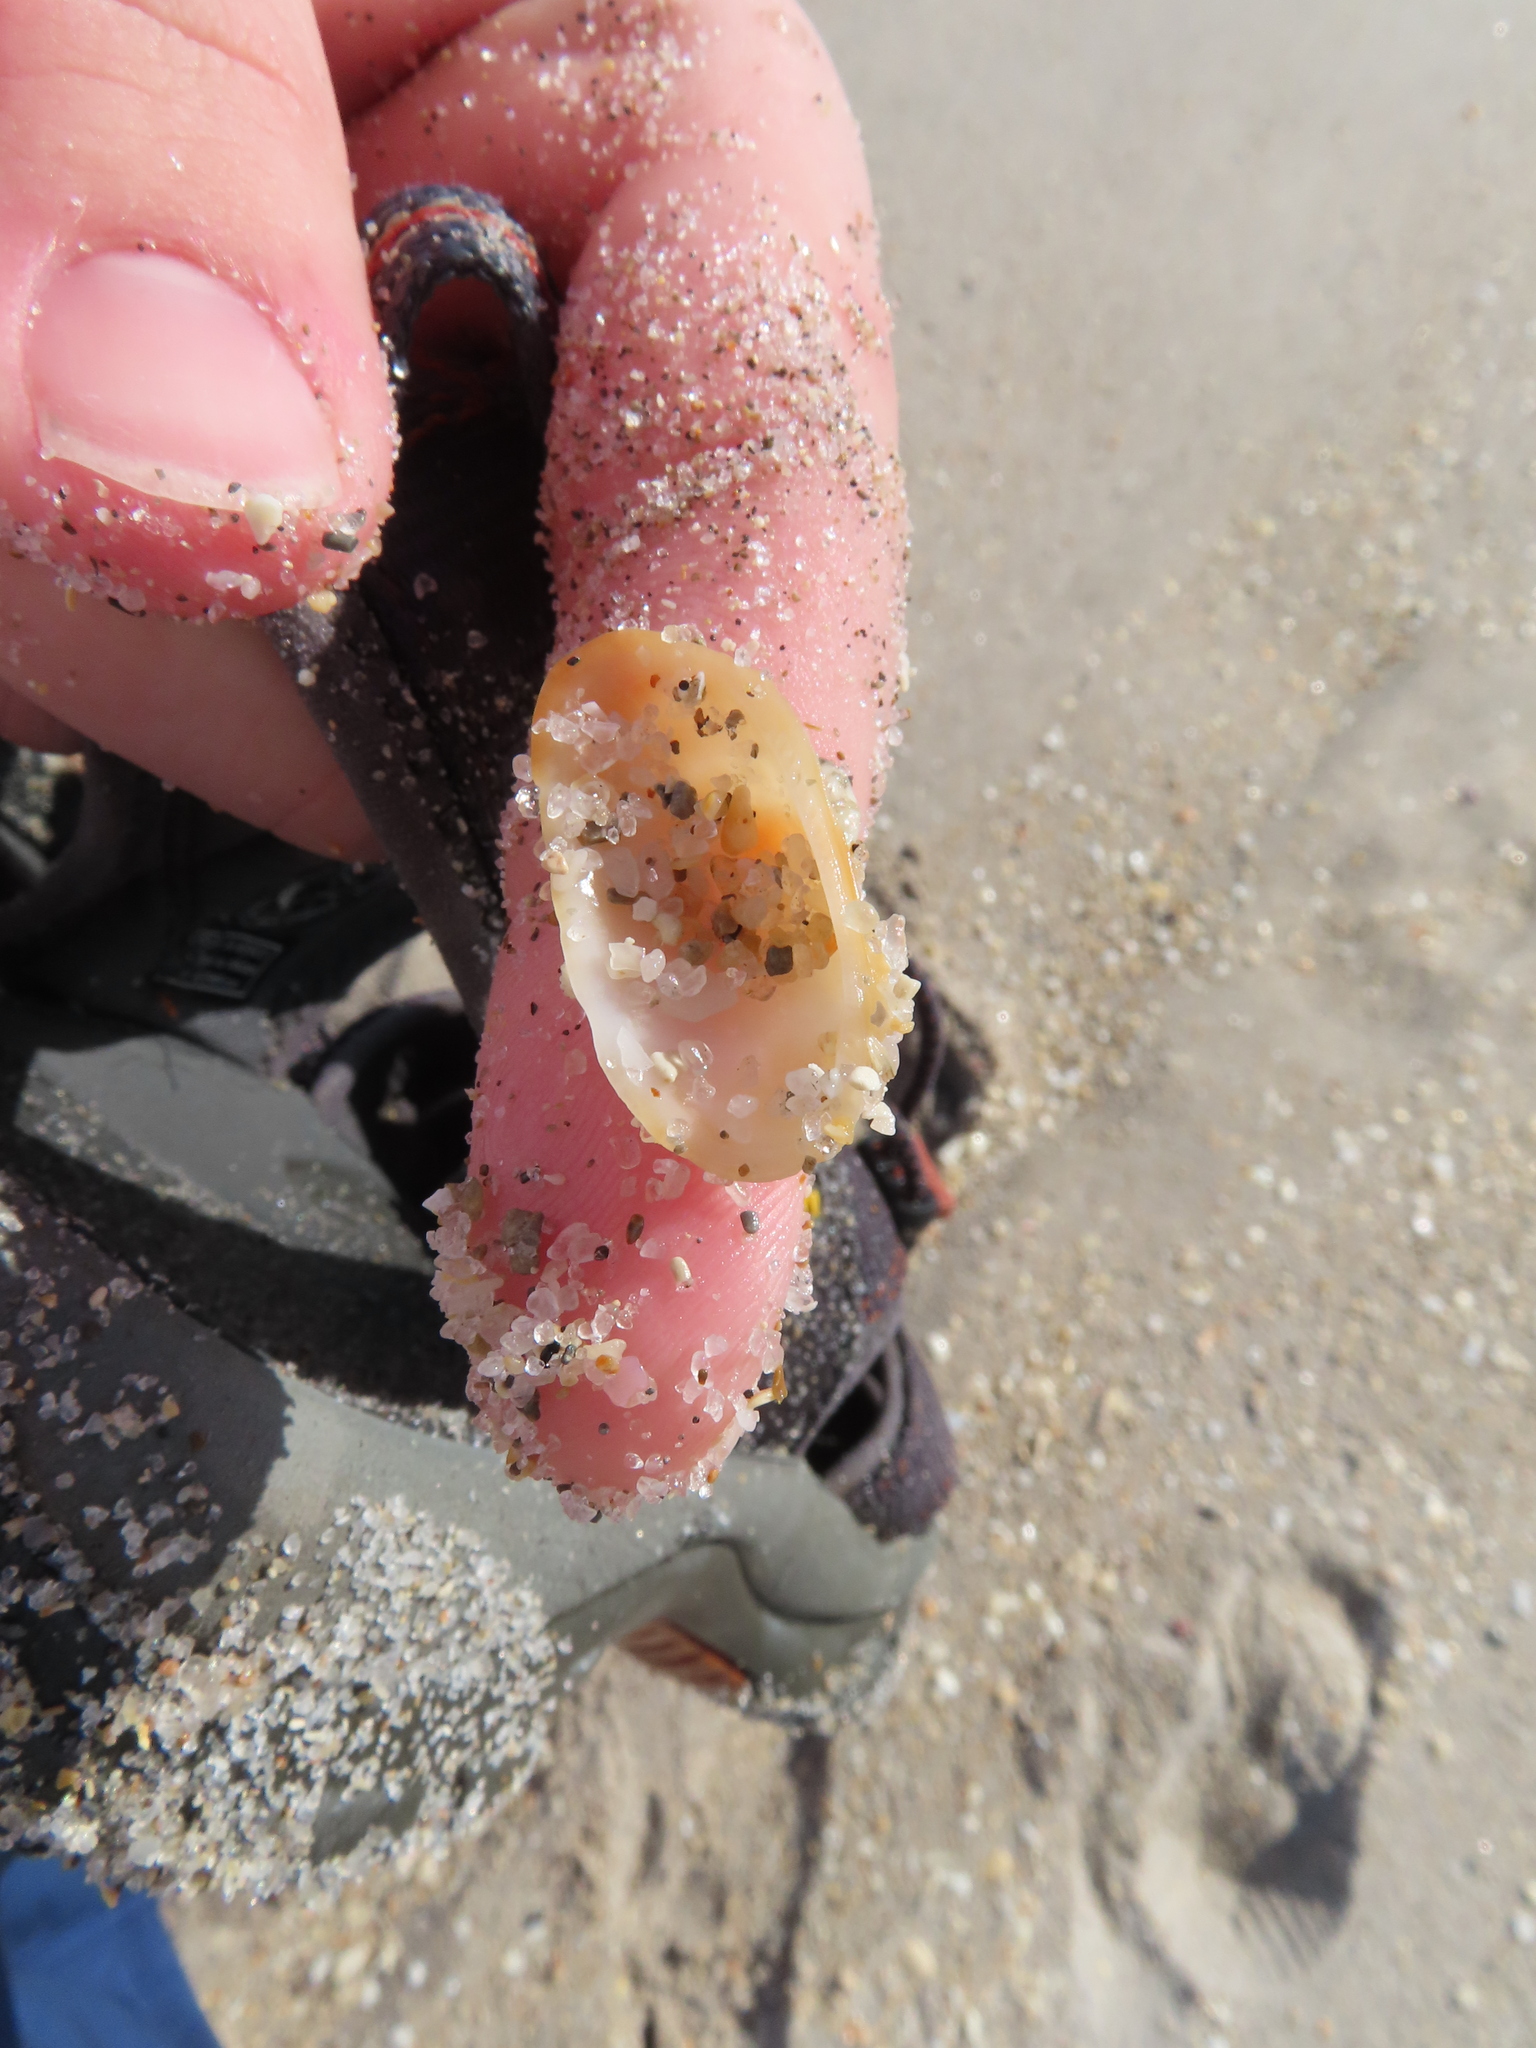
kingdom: Animalia
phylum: Mollusca
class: Bivalvia
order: Arcida
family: Arcidae
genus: Barbatia
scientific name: Barbatia domingensis
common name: White miniature ark
